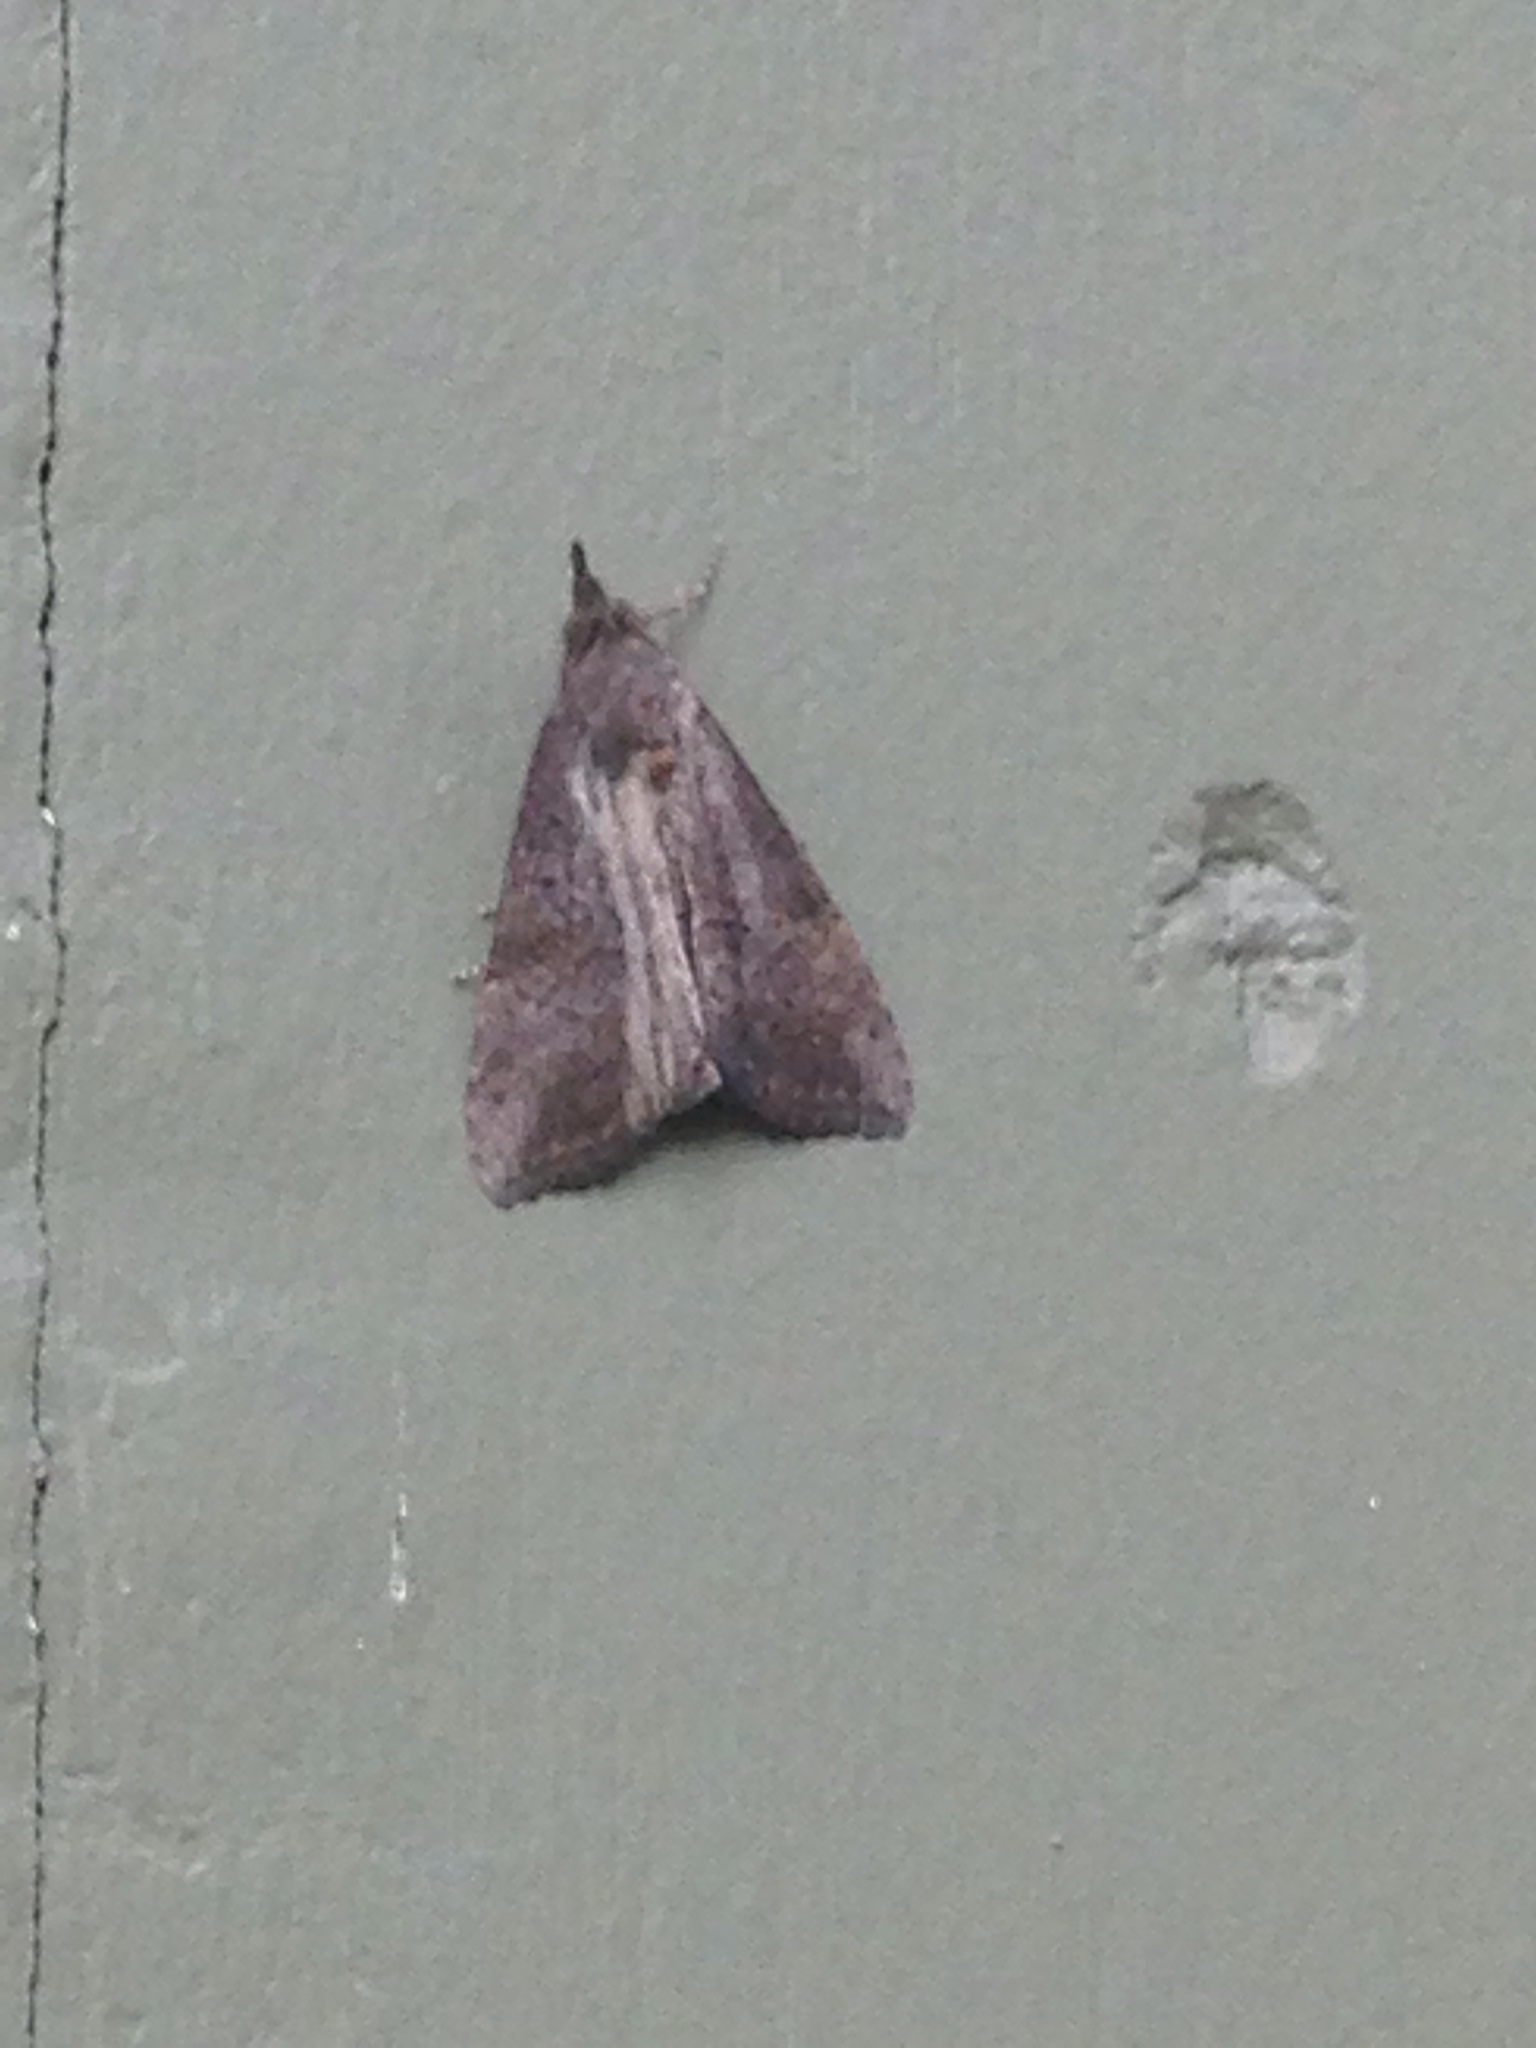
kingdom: Animalia
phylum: Arthropoda
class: Insecta
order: Lepidoptera
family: Erebidae
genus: Hypena
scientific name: Hypena scabra
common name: Green cloverworm
